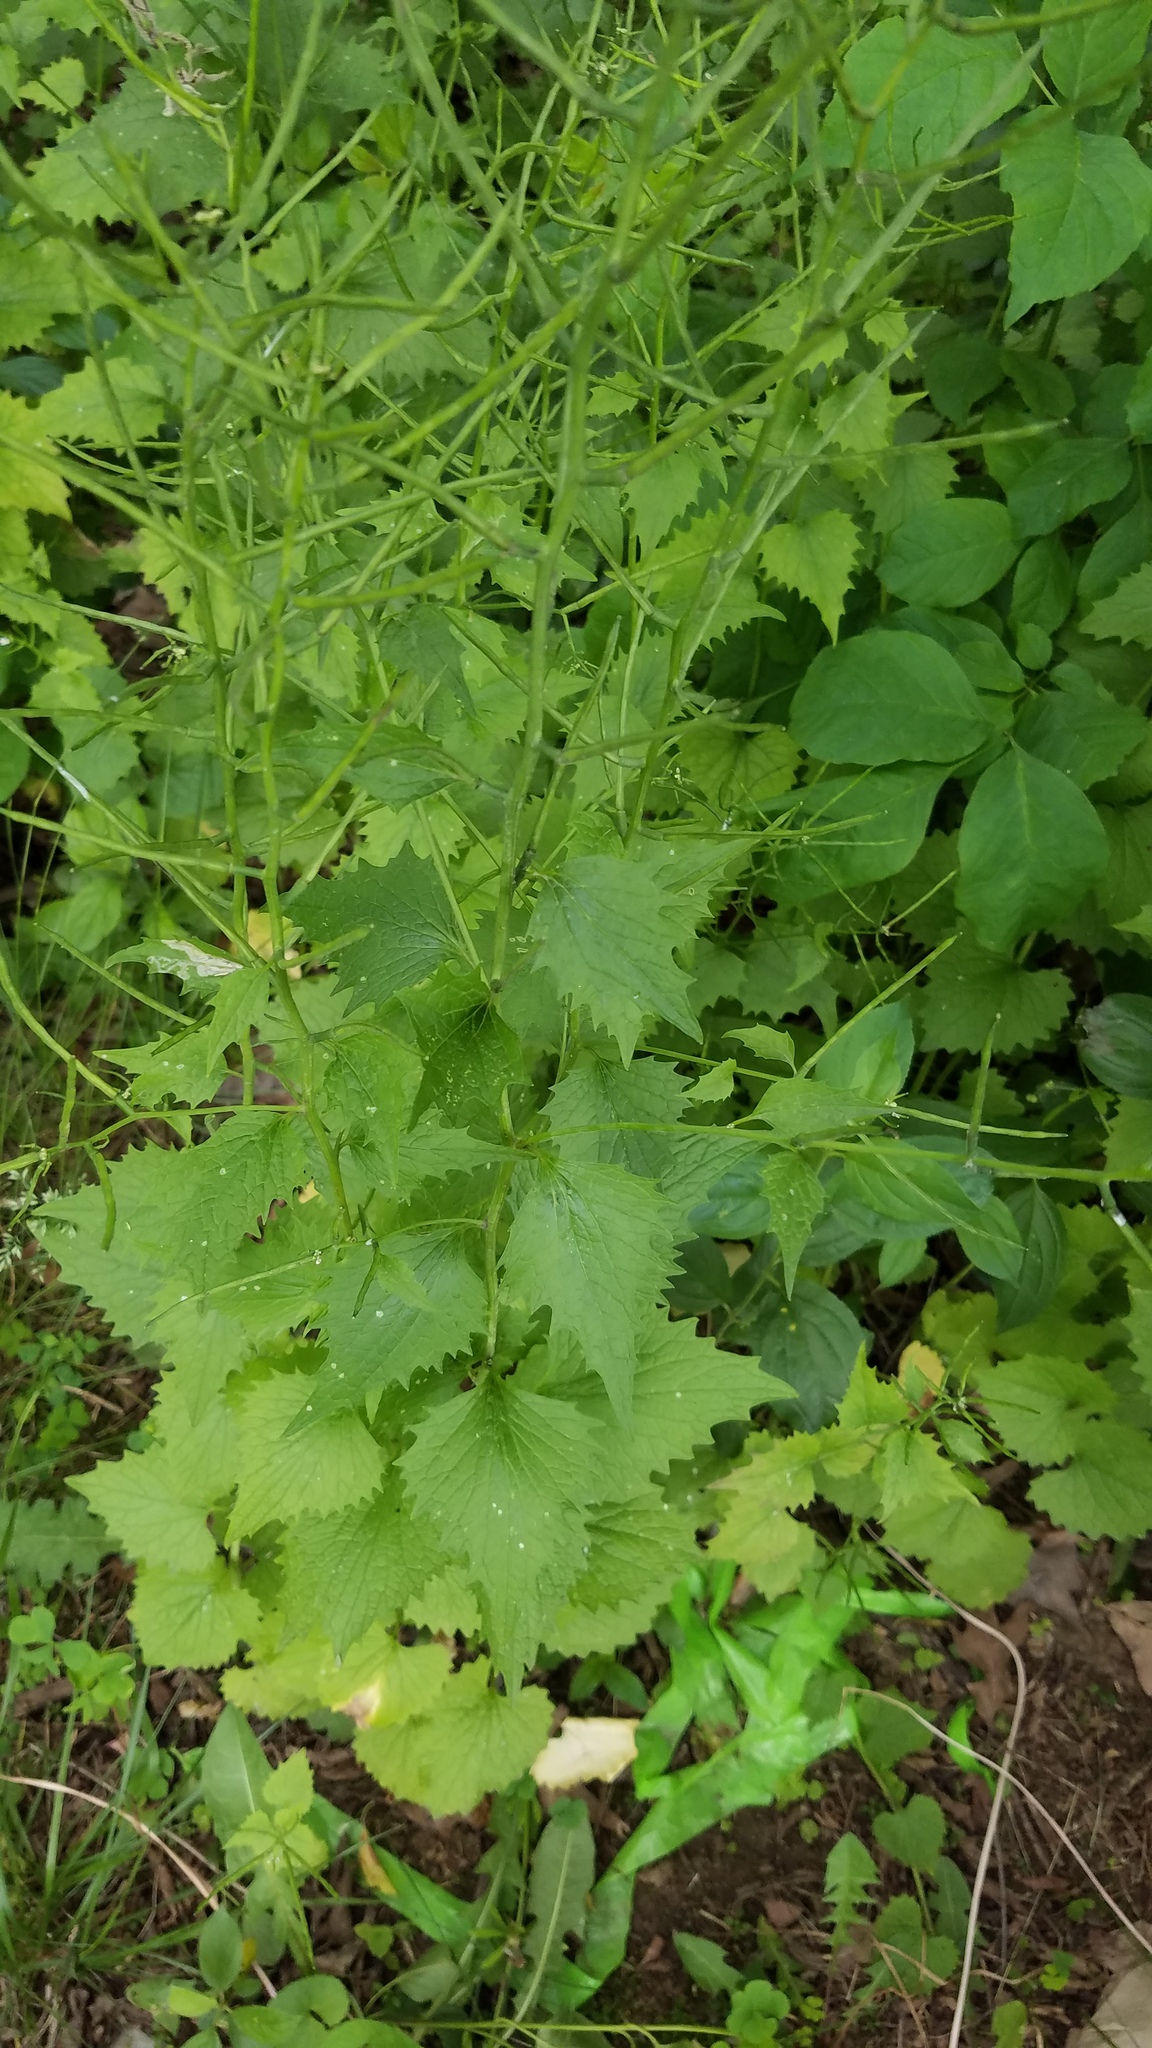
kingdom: Plantae
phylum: Tracheophyta
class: Magnoliopsida
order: Brassicales
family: Brassicaceae
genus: Alliaria
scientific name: Alliaria petiolata
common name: Garlic mustard
